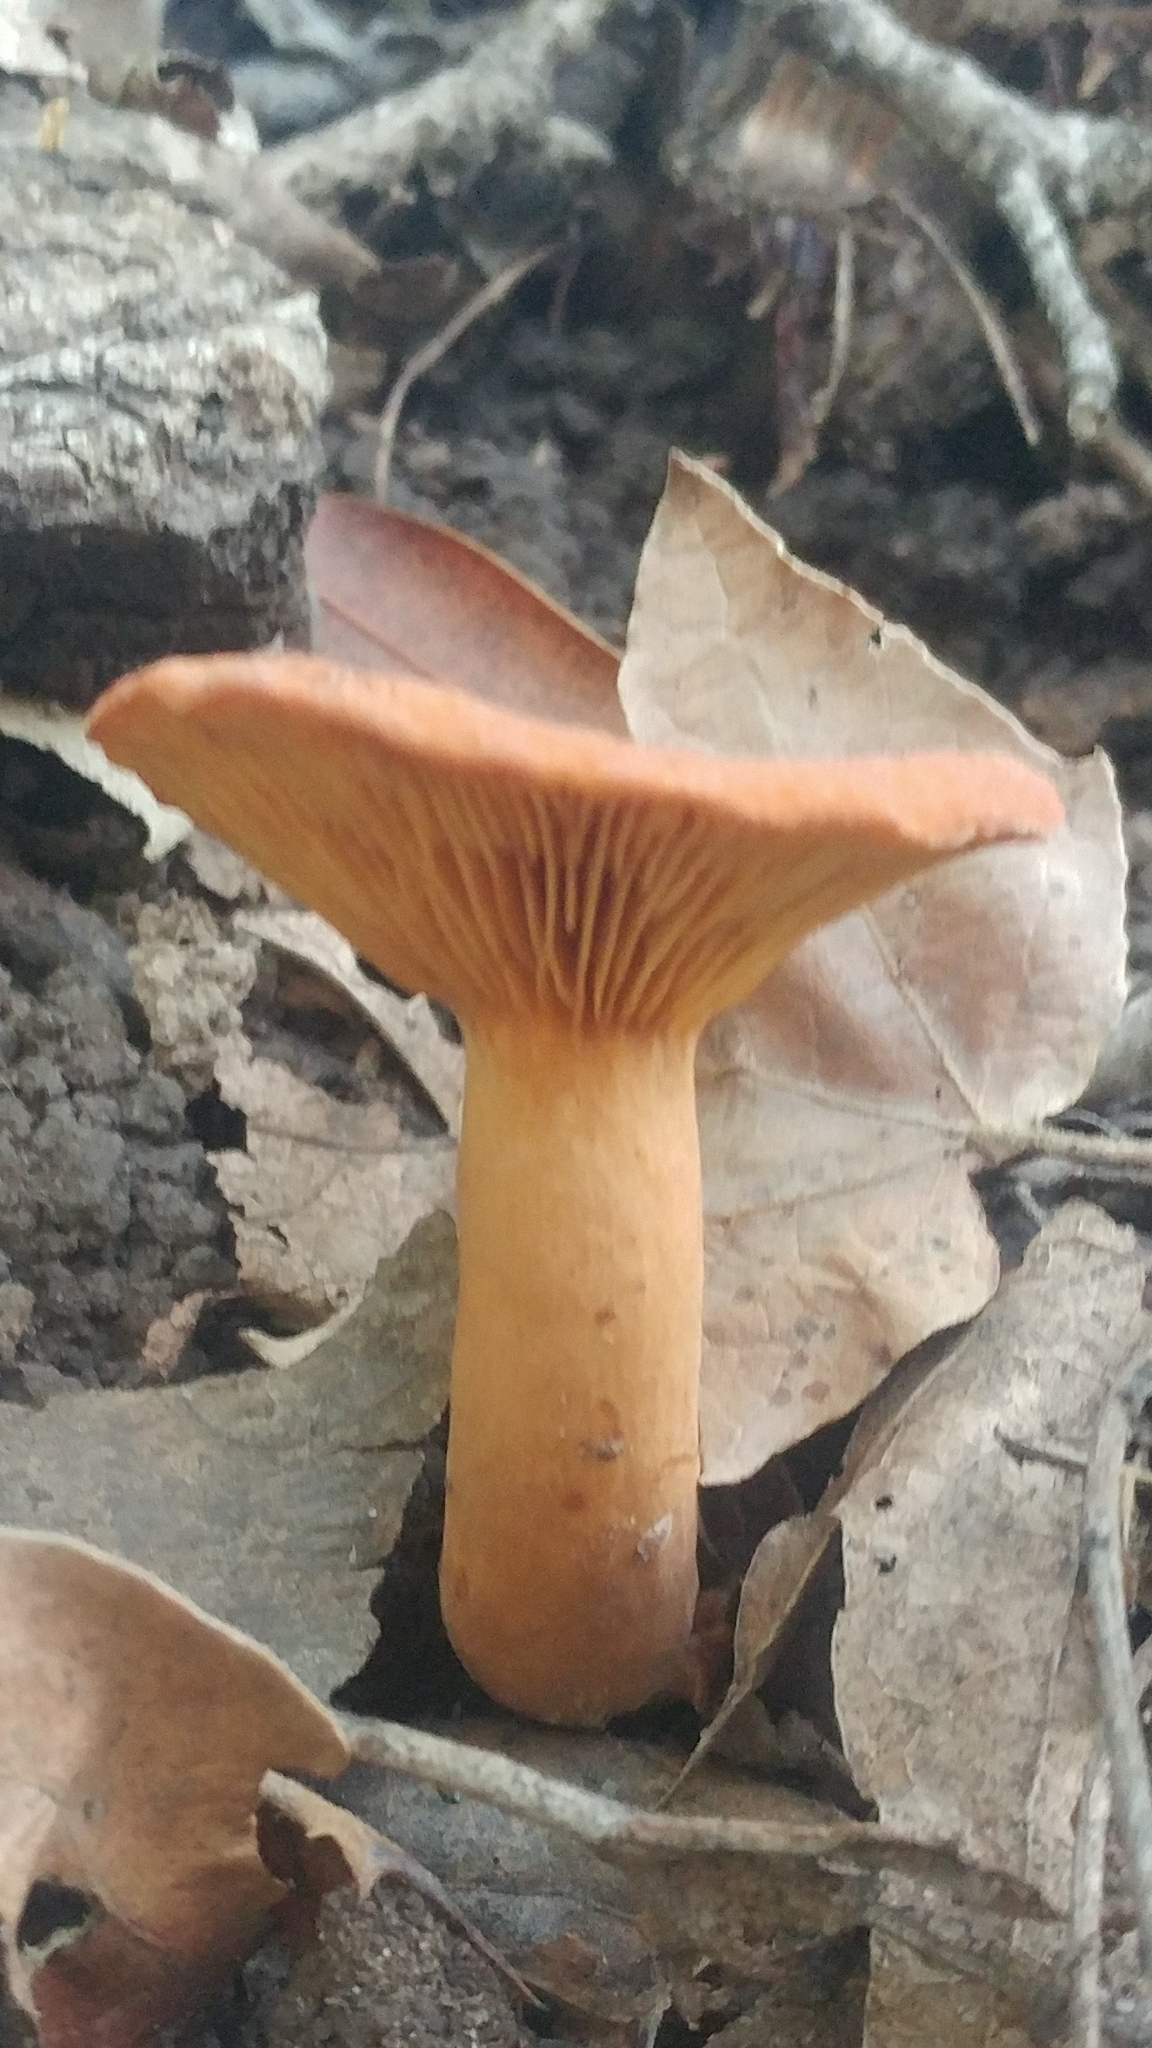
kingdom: Fungi
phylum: Basidiomycota
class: Agaricomycetes
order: Russulales
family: Russulaceae
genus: Lactarius
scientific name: Lactarius rubidus
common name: Candy cap
